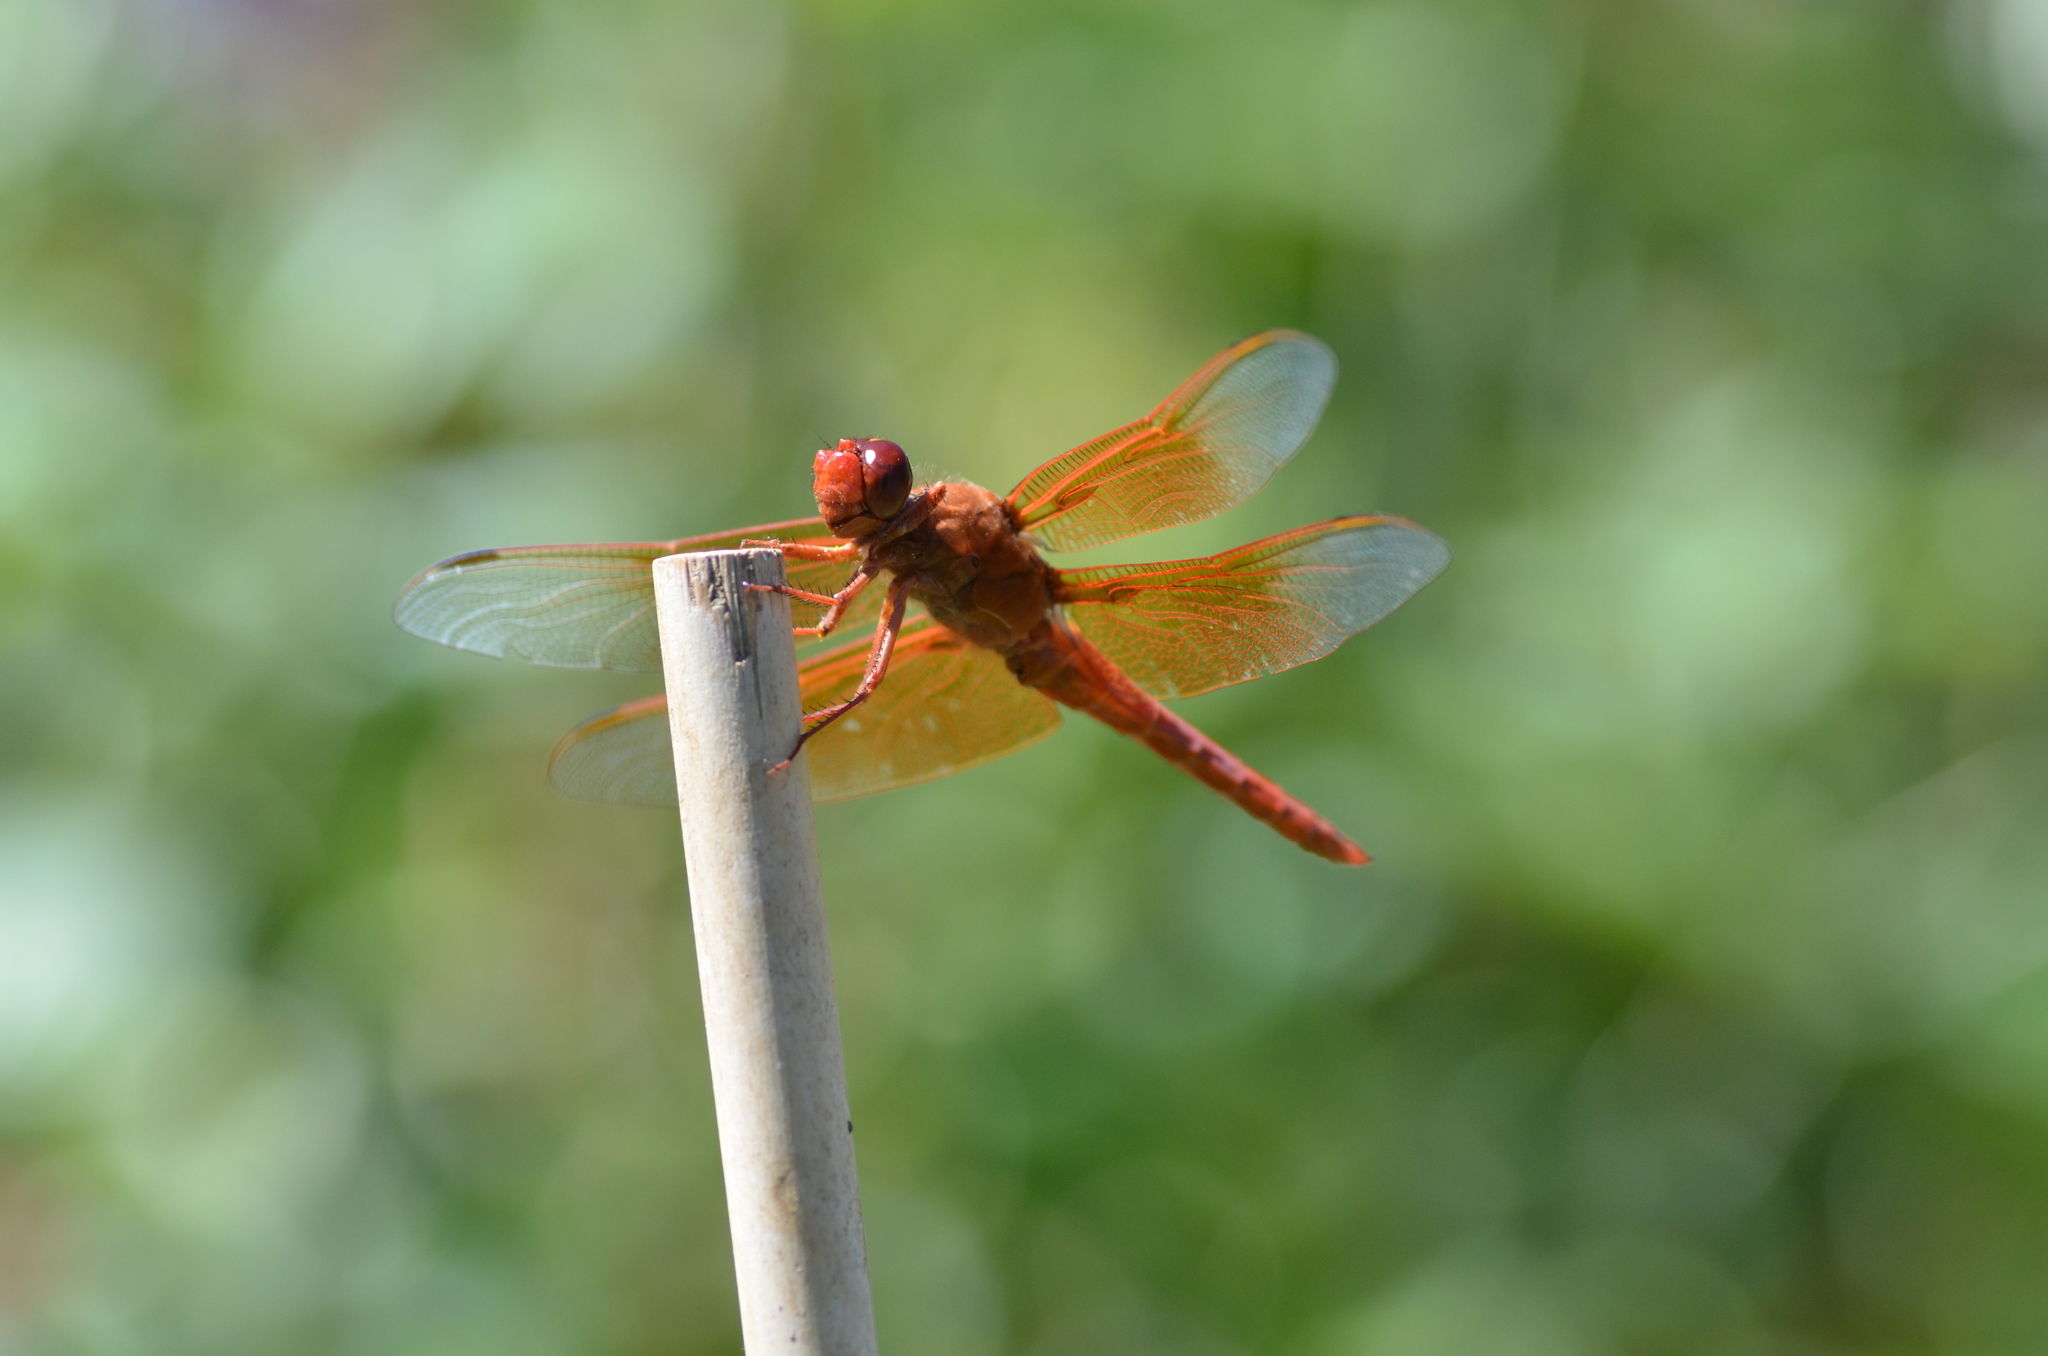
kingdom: Animalia
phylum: Arthropoda
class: Insecta
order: Odonata
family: Libellulidae
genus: Libellula
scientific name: Libellula saturata
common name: Flame skimmer
